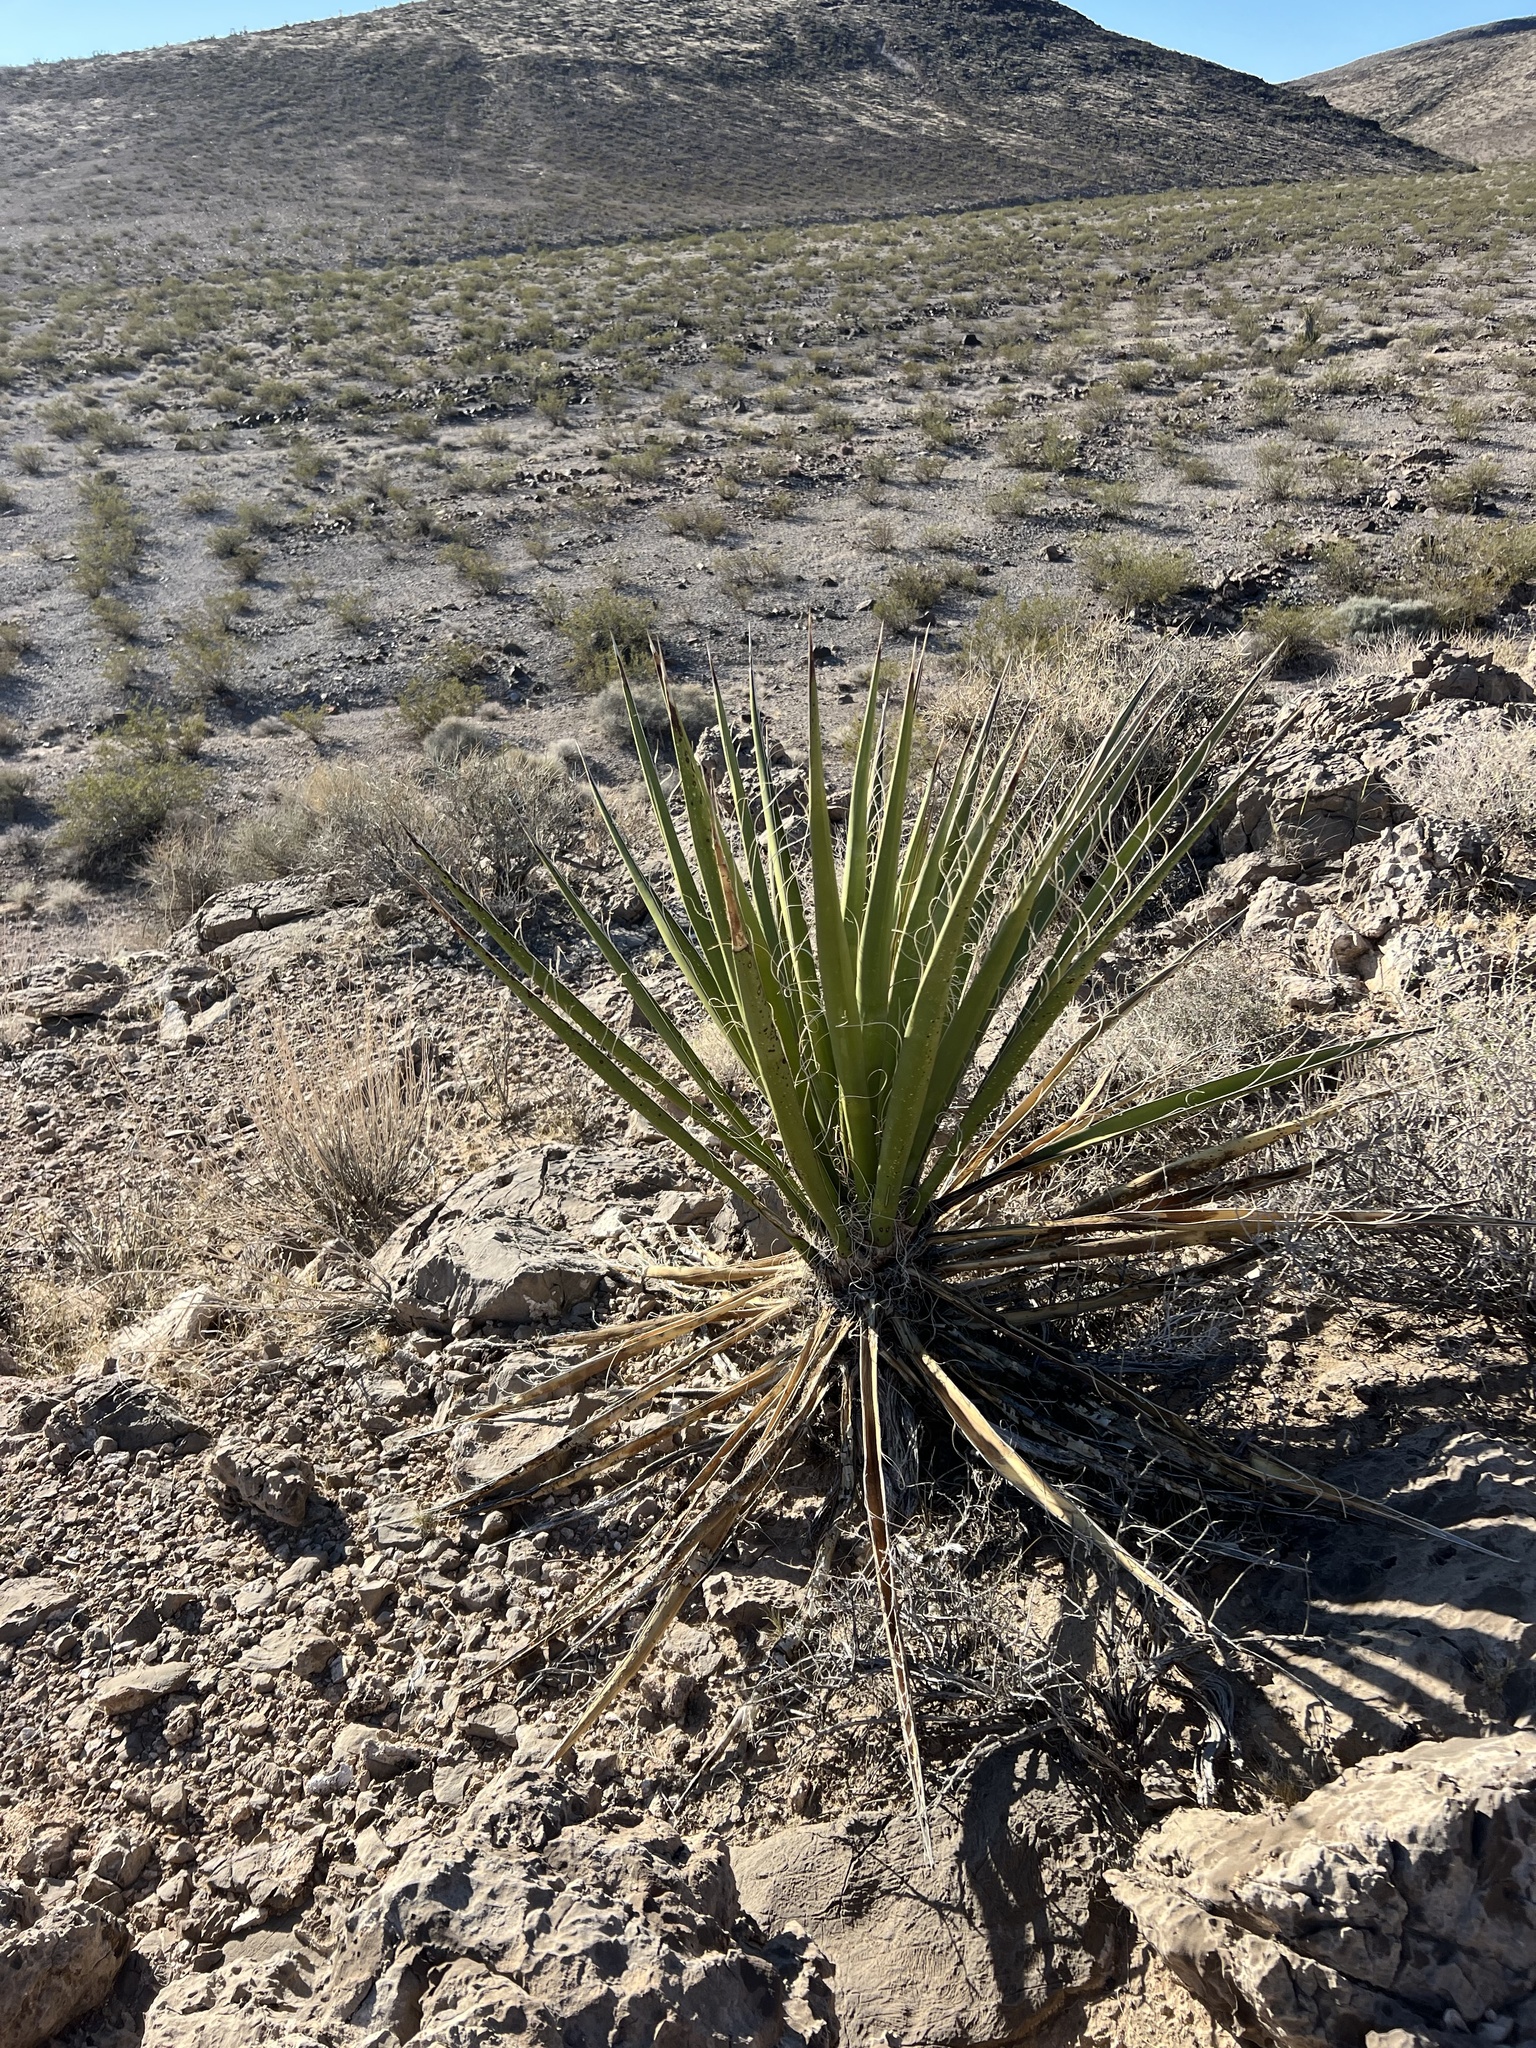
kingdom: Plantae
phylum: Tracheophyta
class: Liliopsida
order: Asparagales
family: Asparagaceae
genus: Yucca
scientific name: Yucca schidigera
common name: Mojave yucca
